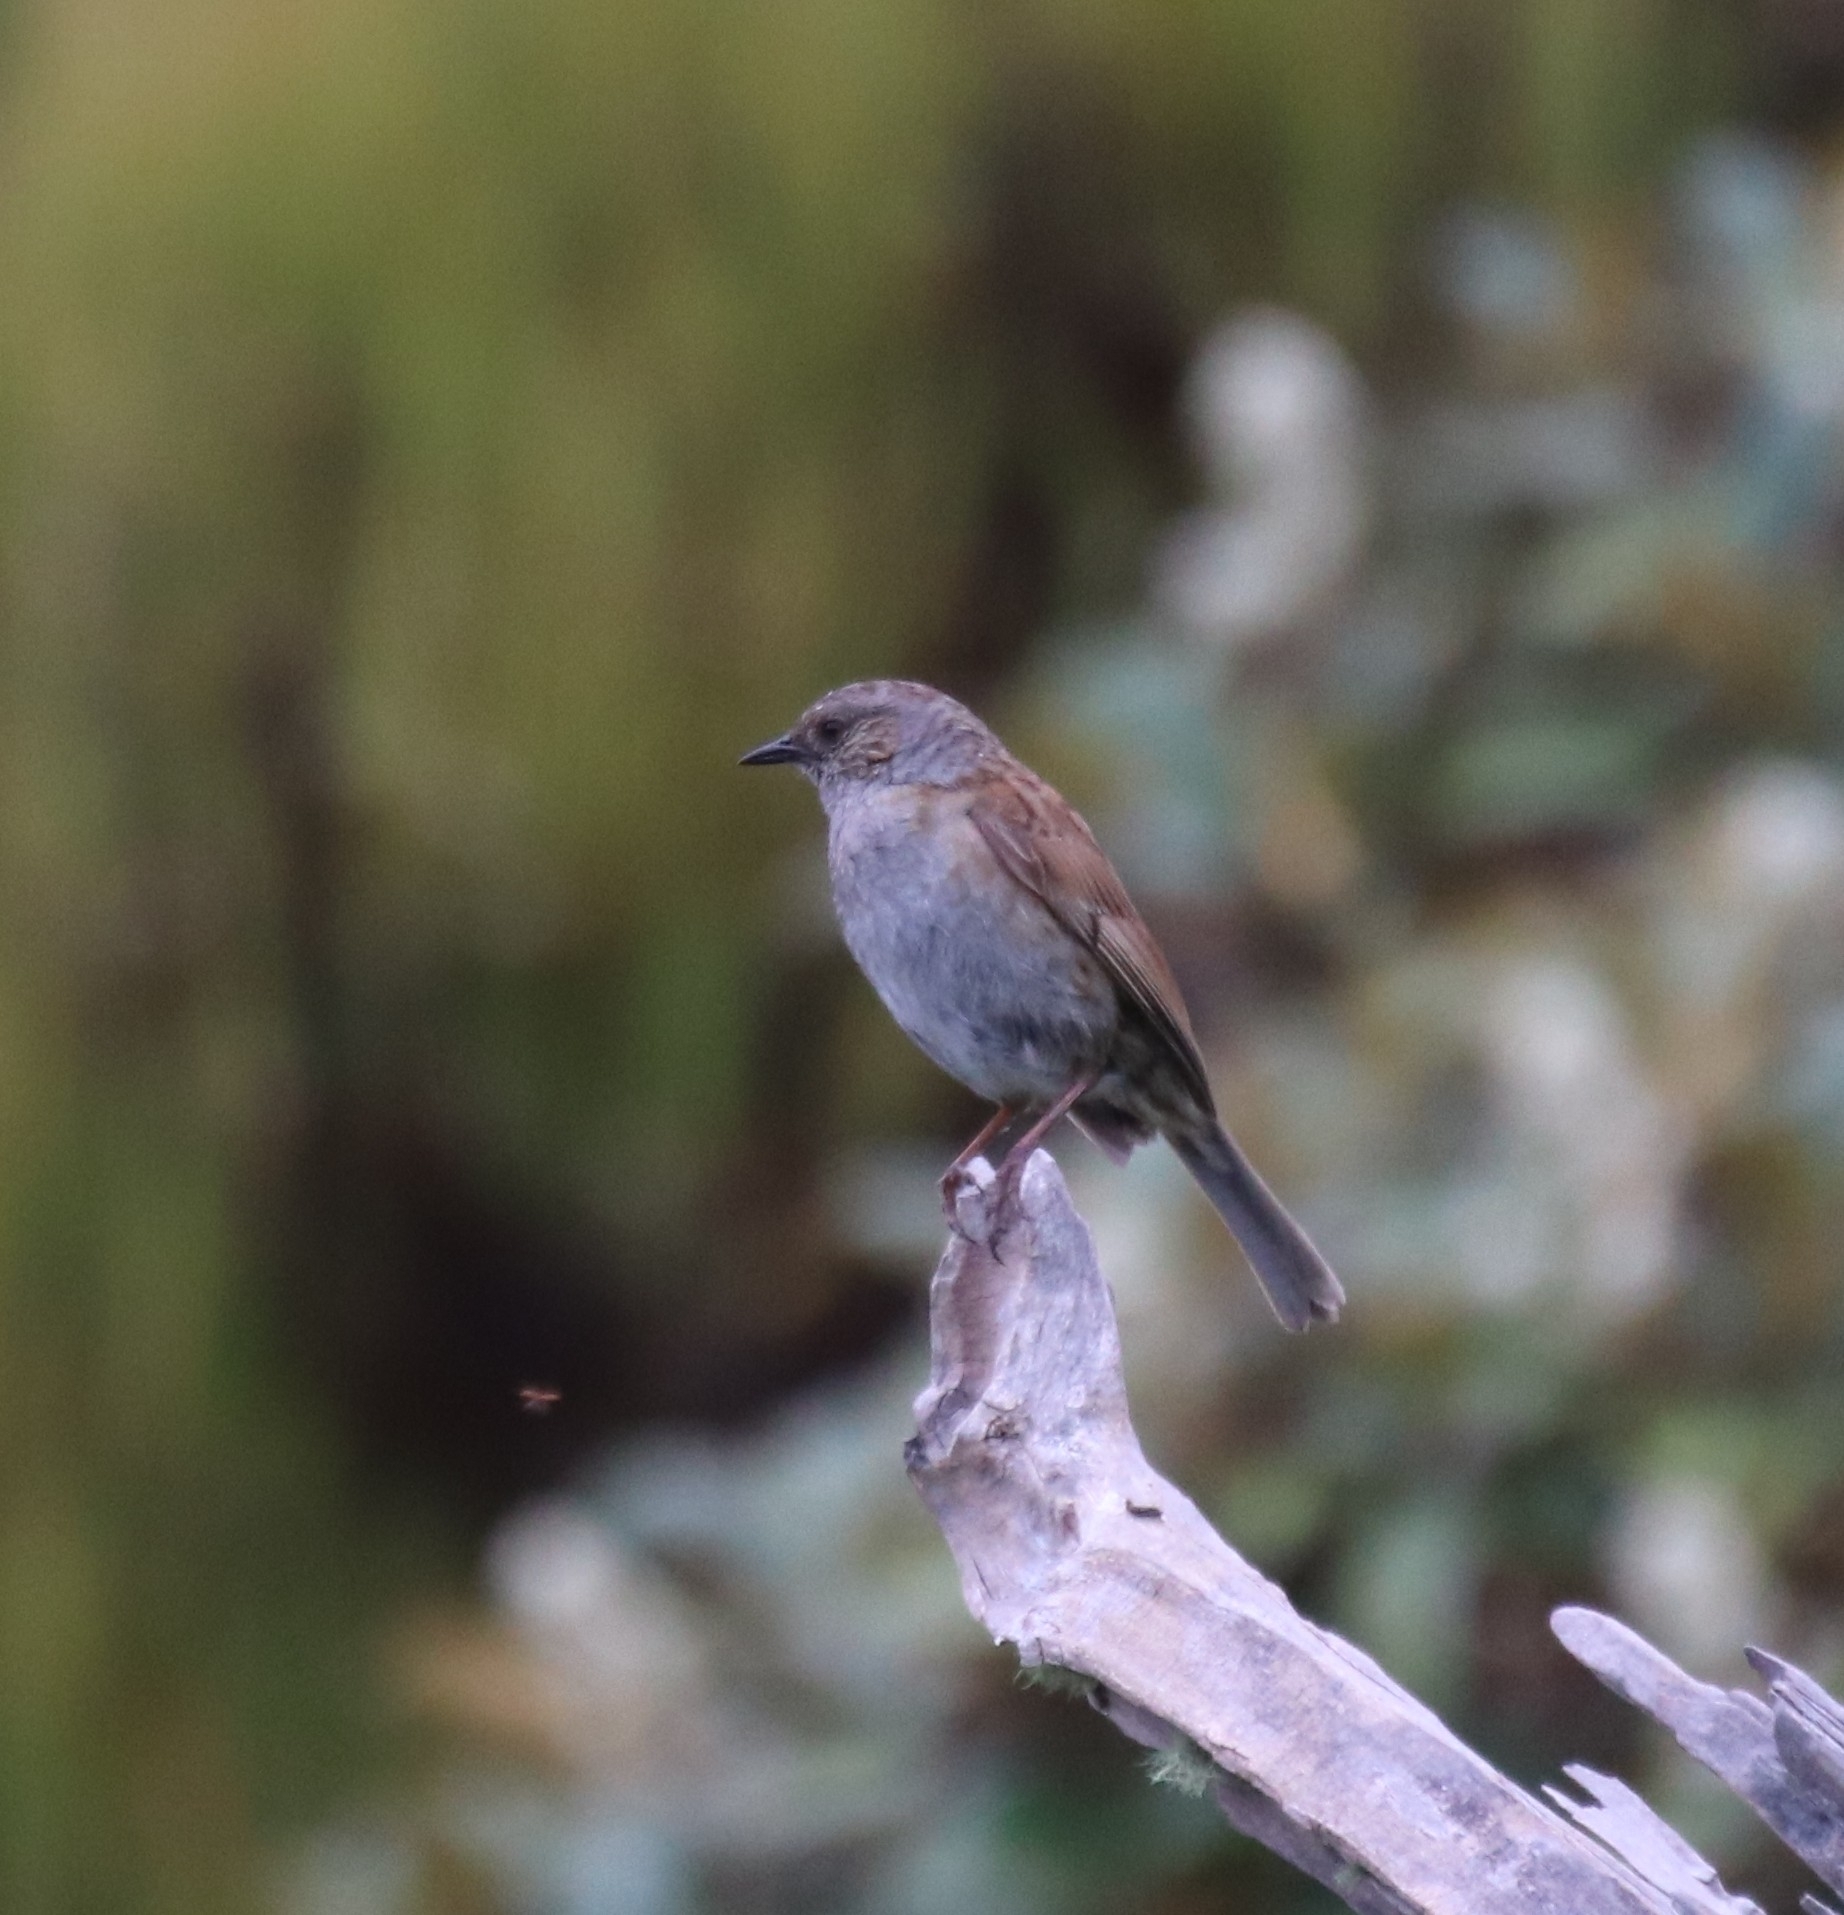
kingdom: Animalia
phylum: Chordata
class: Aves
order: Passeriformes
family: Prunellidae
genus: Prunella
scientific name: Prunella modularis
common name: Dunnock
